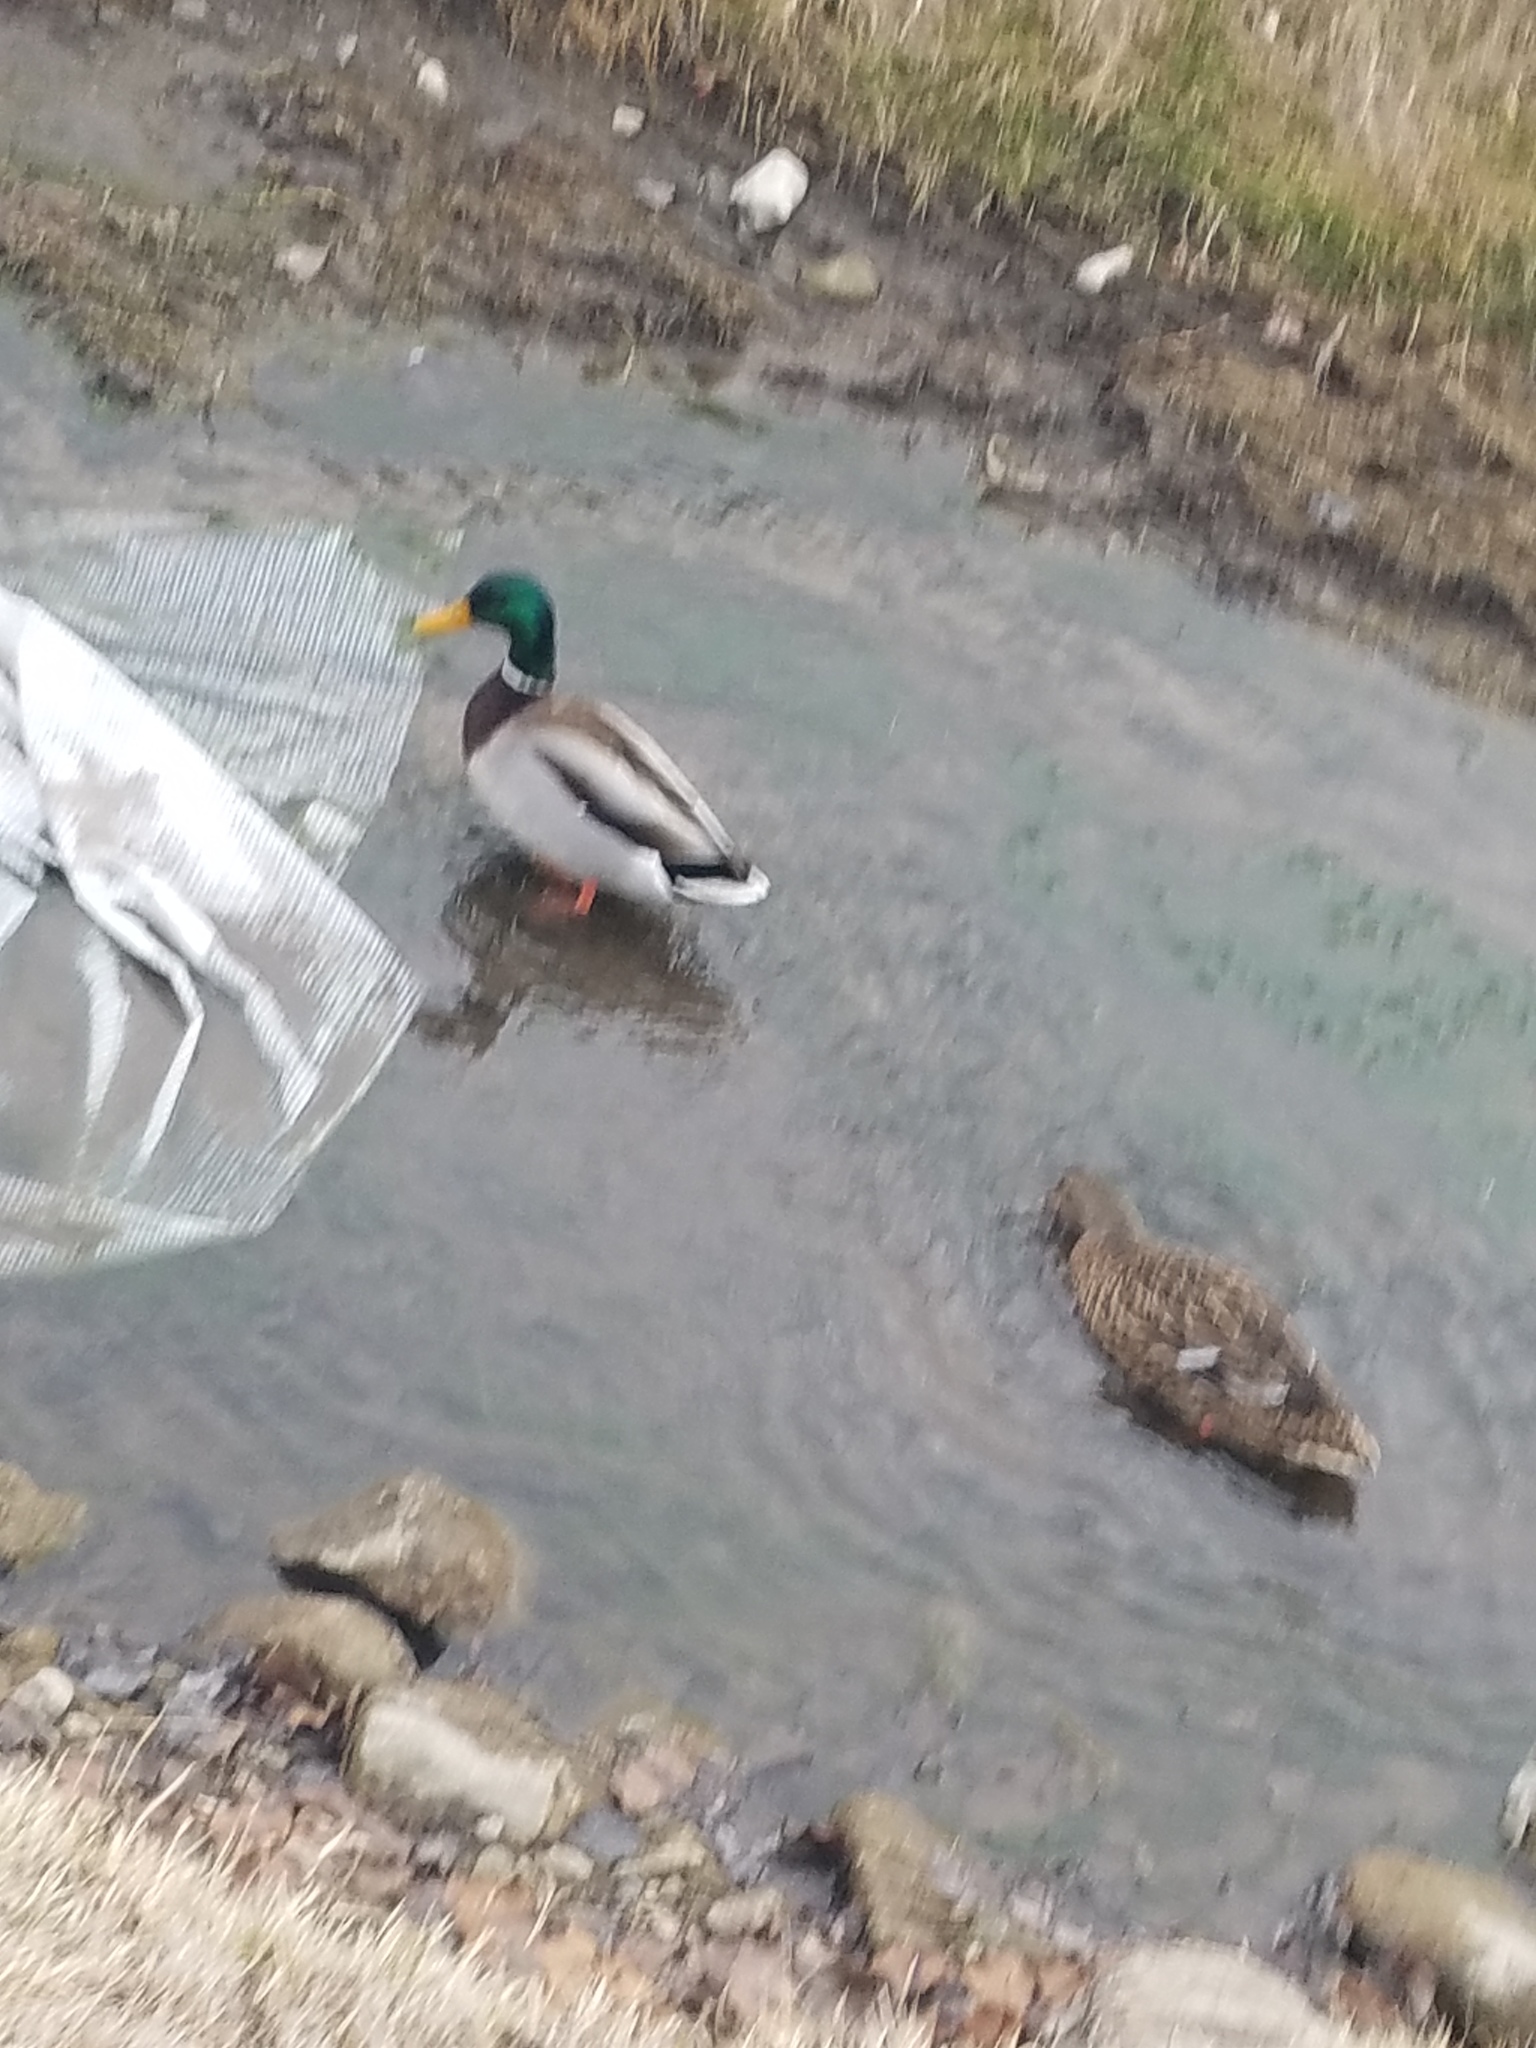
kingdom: Animalia
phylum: Chordata
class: Aves
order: Anseriformes
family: Anatidae
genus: Anas
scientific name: Anas platyrhynchos
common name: Mallard
